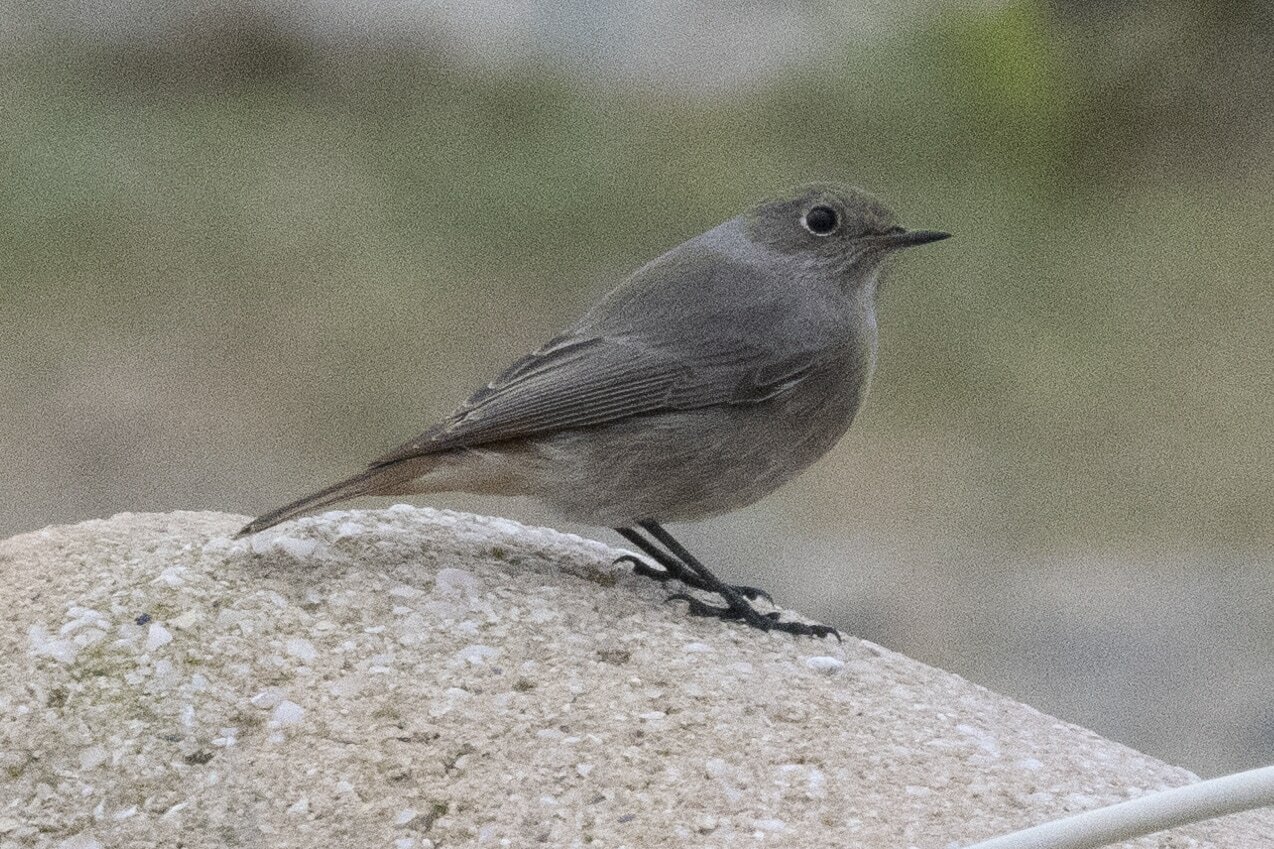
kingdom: Animalia
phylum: Chordata
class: Aves
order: Passeriformes
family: Muscicapidae
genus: Phoenicurus
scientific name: Phoenicurus ochruros
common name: Black redstart
